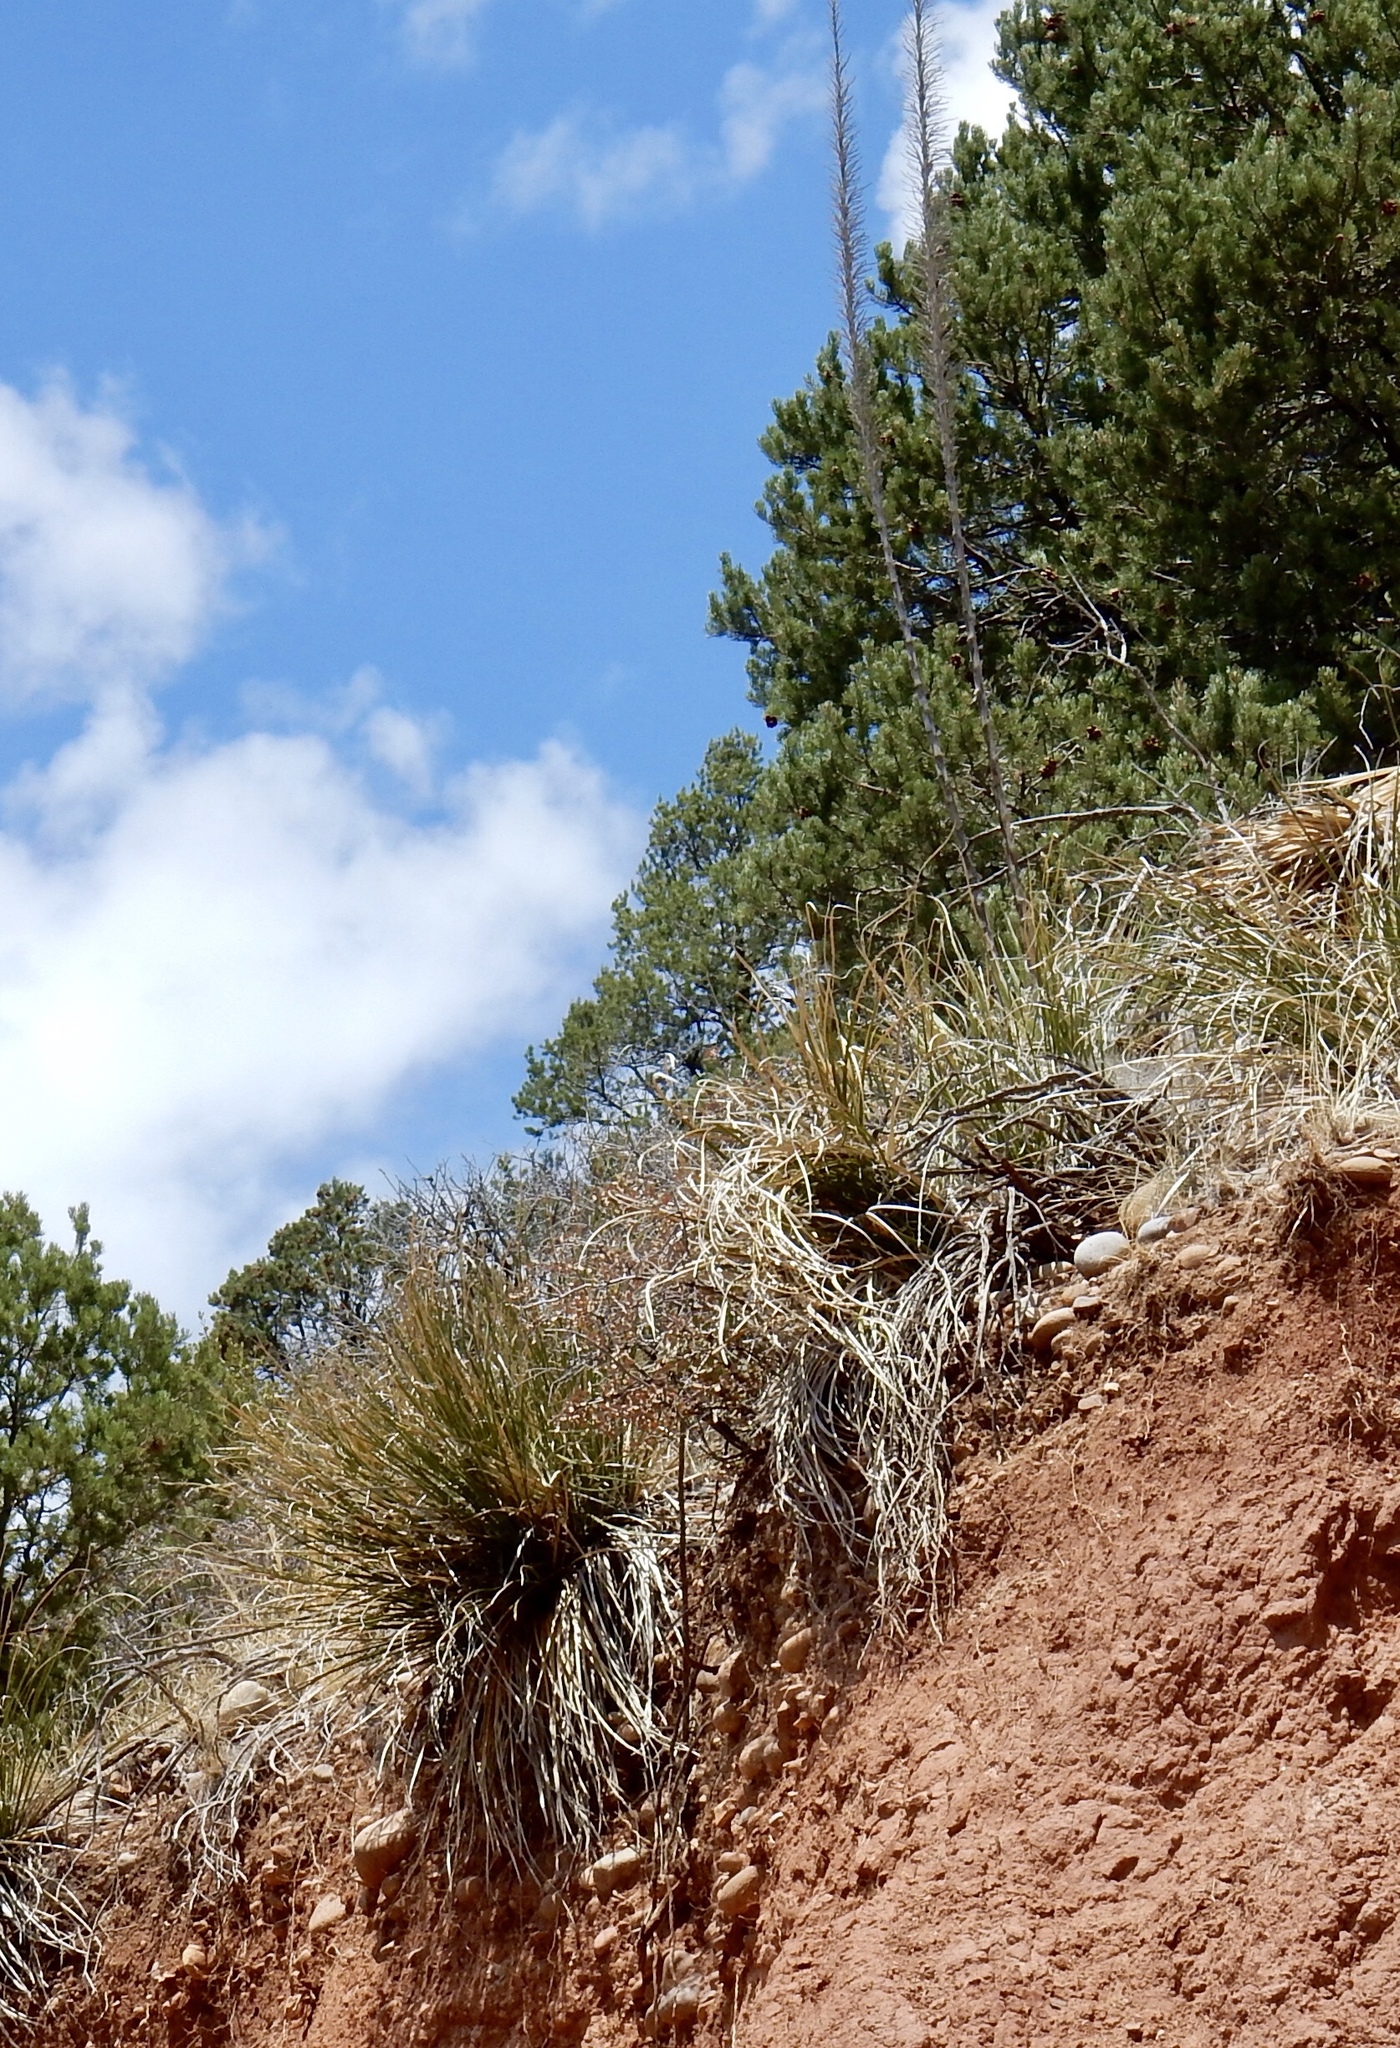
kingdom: Plantae
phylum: Tracheophyta
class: Liliopsida
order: Asparagales
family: Asparagaceae
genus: Nolina
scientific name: Nolina microcarpa
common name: Bear-grass
